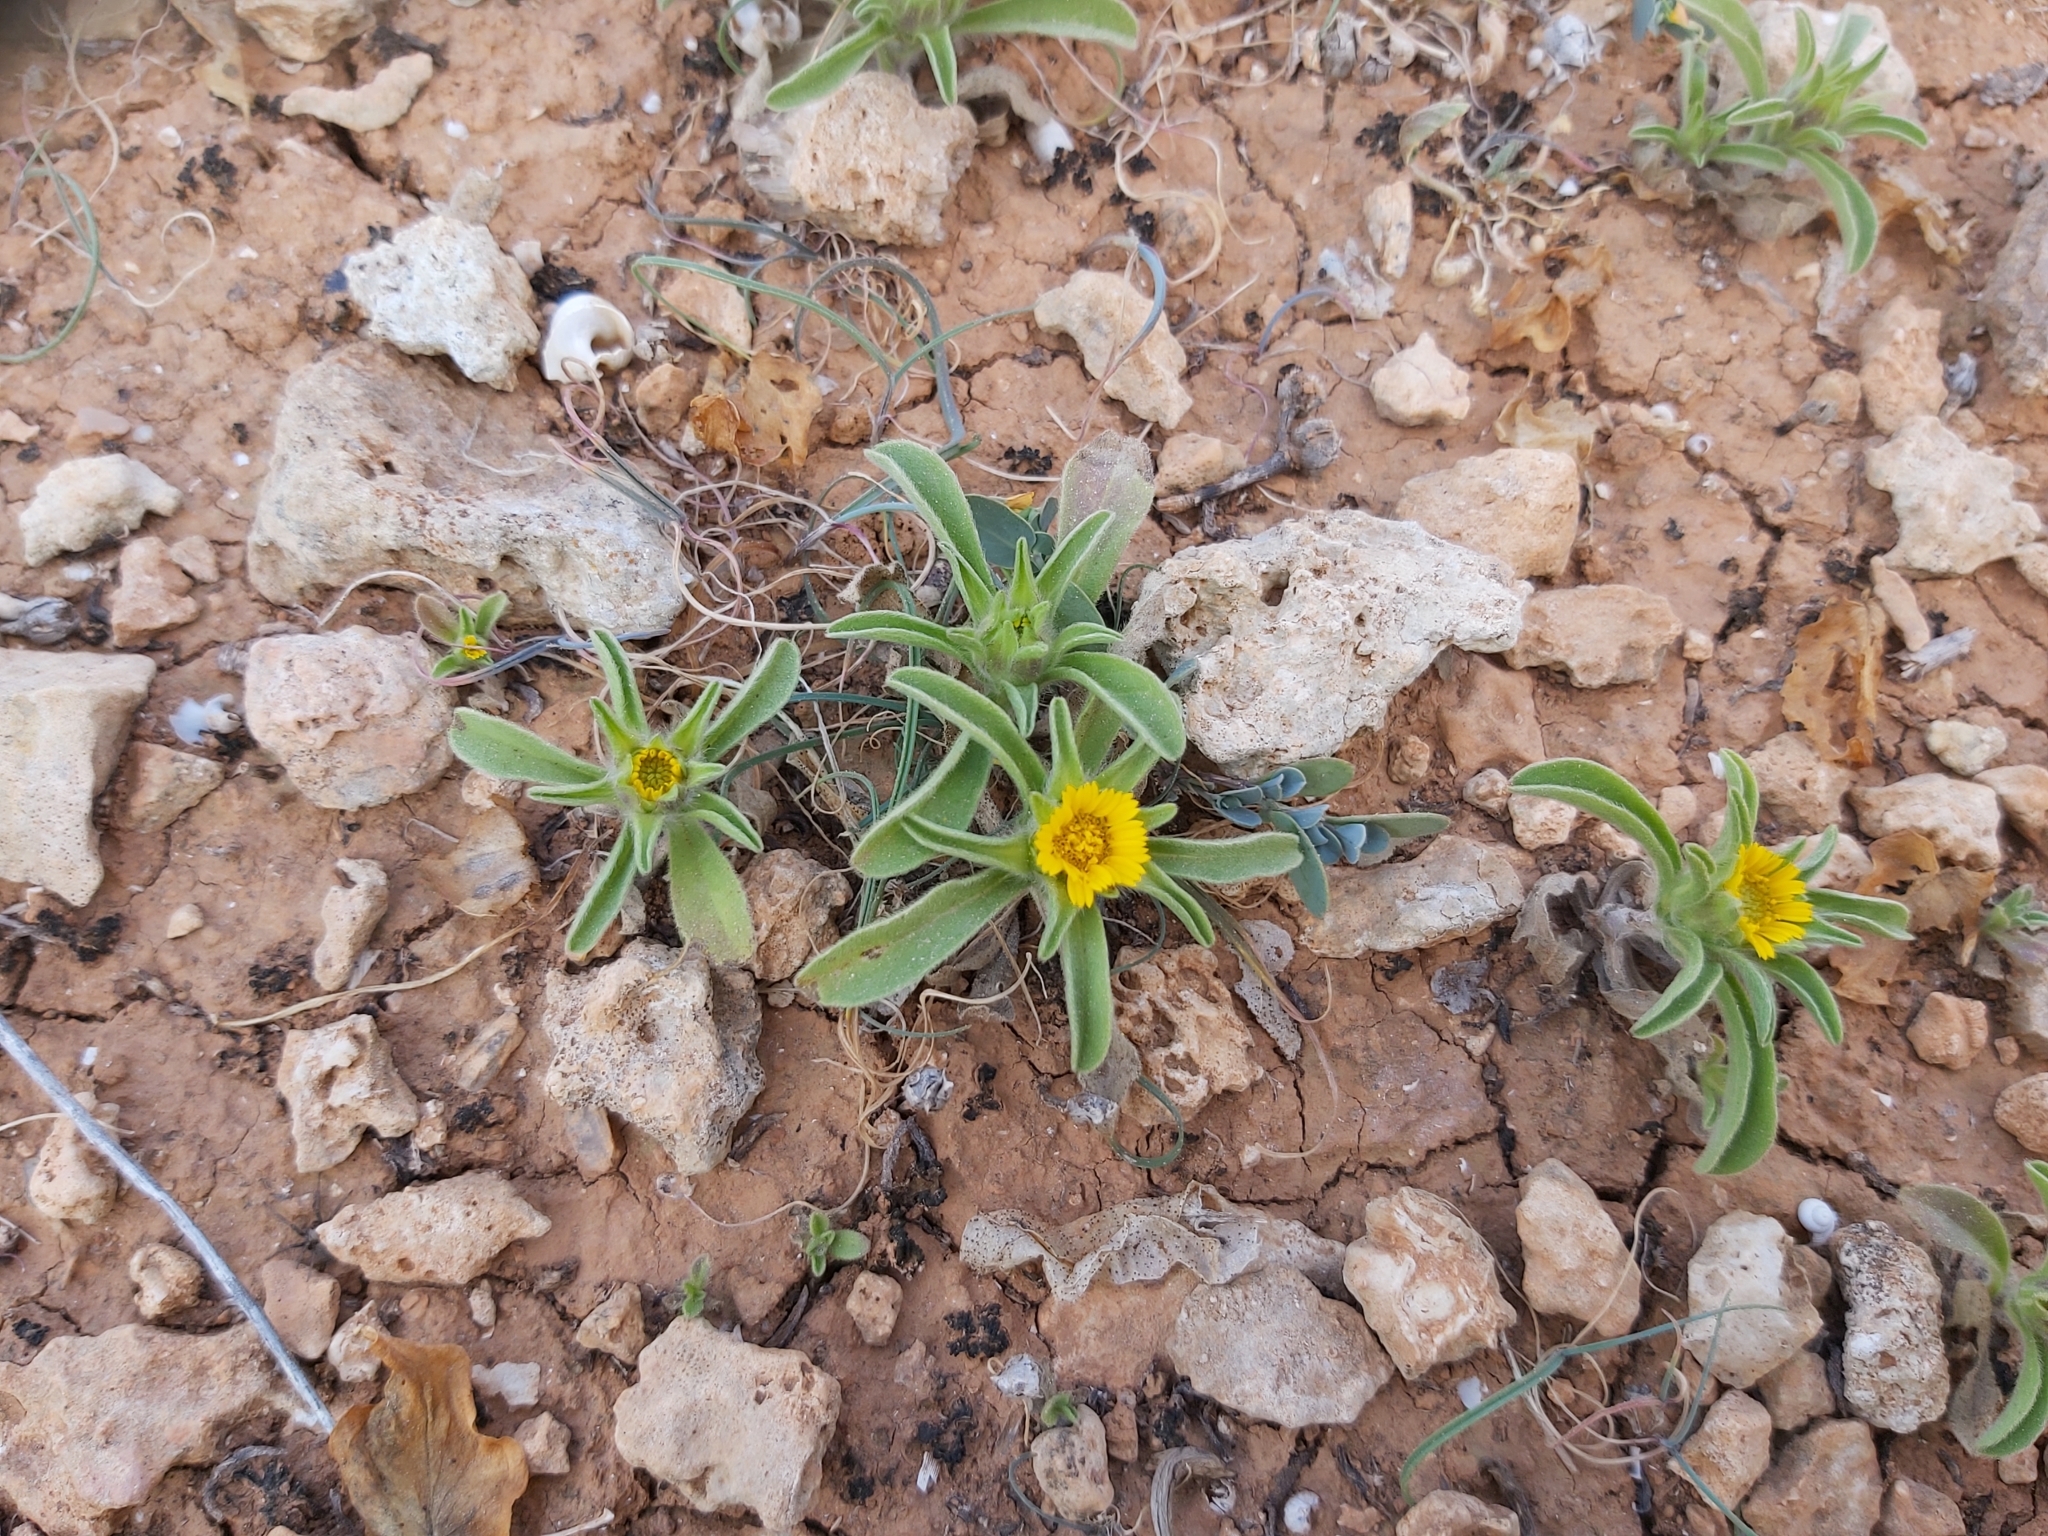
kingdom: Plantae
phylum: Tracheophyta
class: Magnoliopsida
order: Asterales
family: Asteraceae
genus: Asteriscus
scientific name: Asteriscus aquaticus
